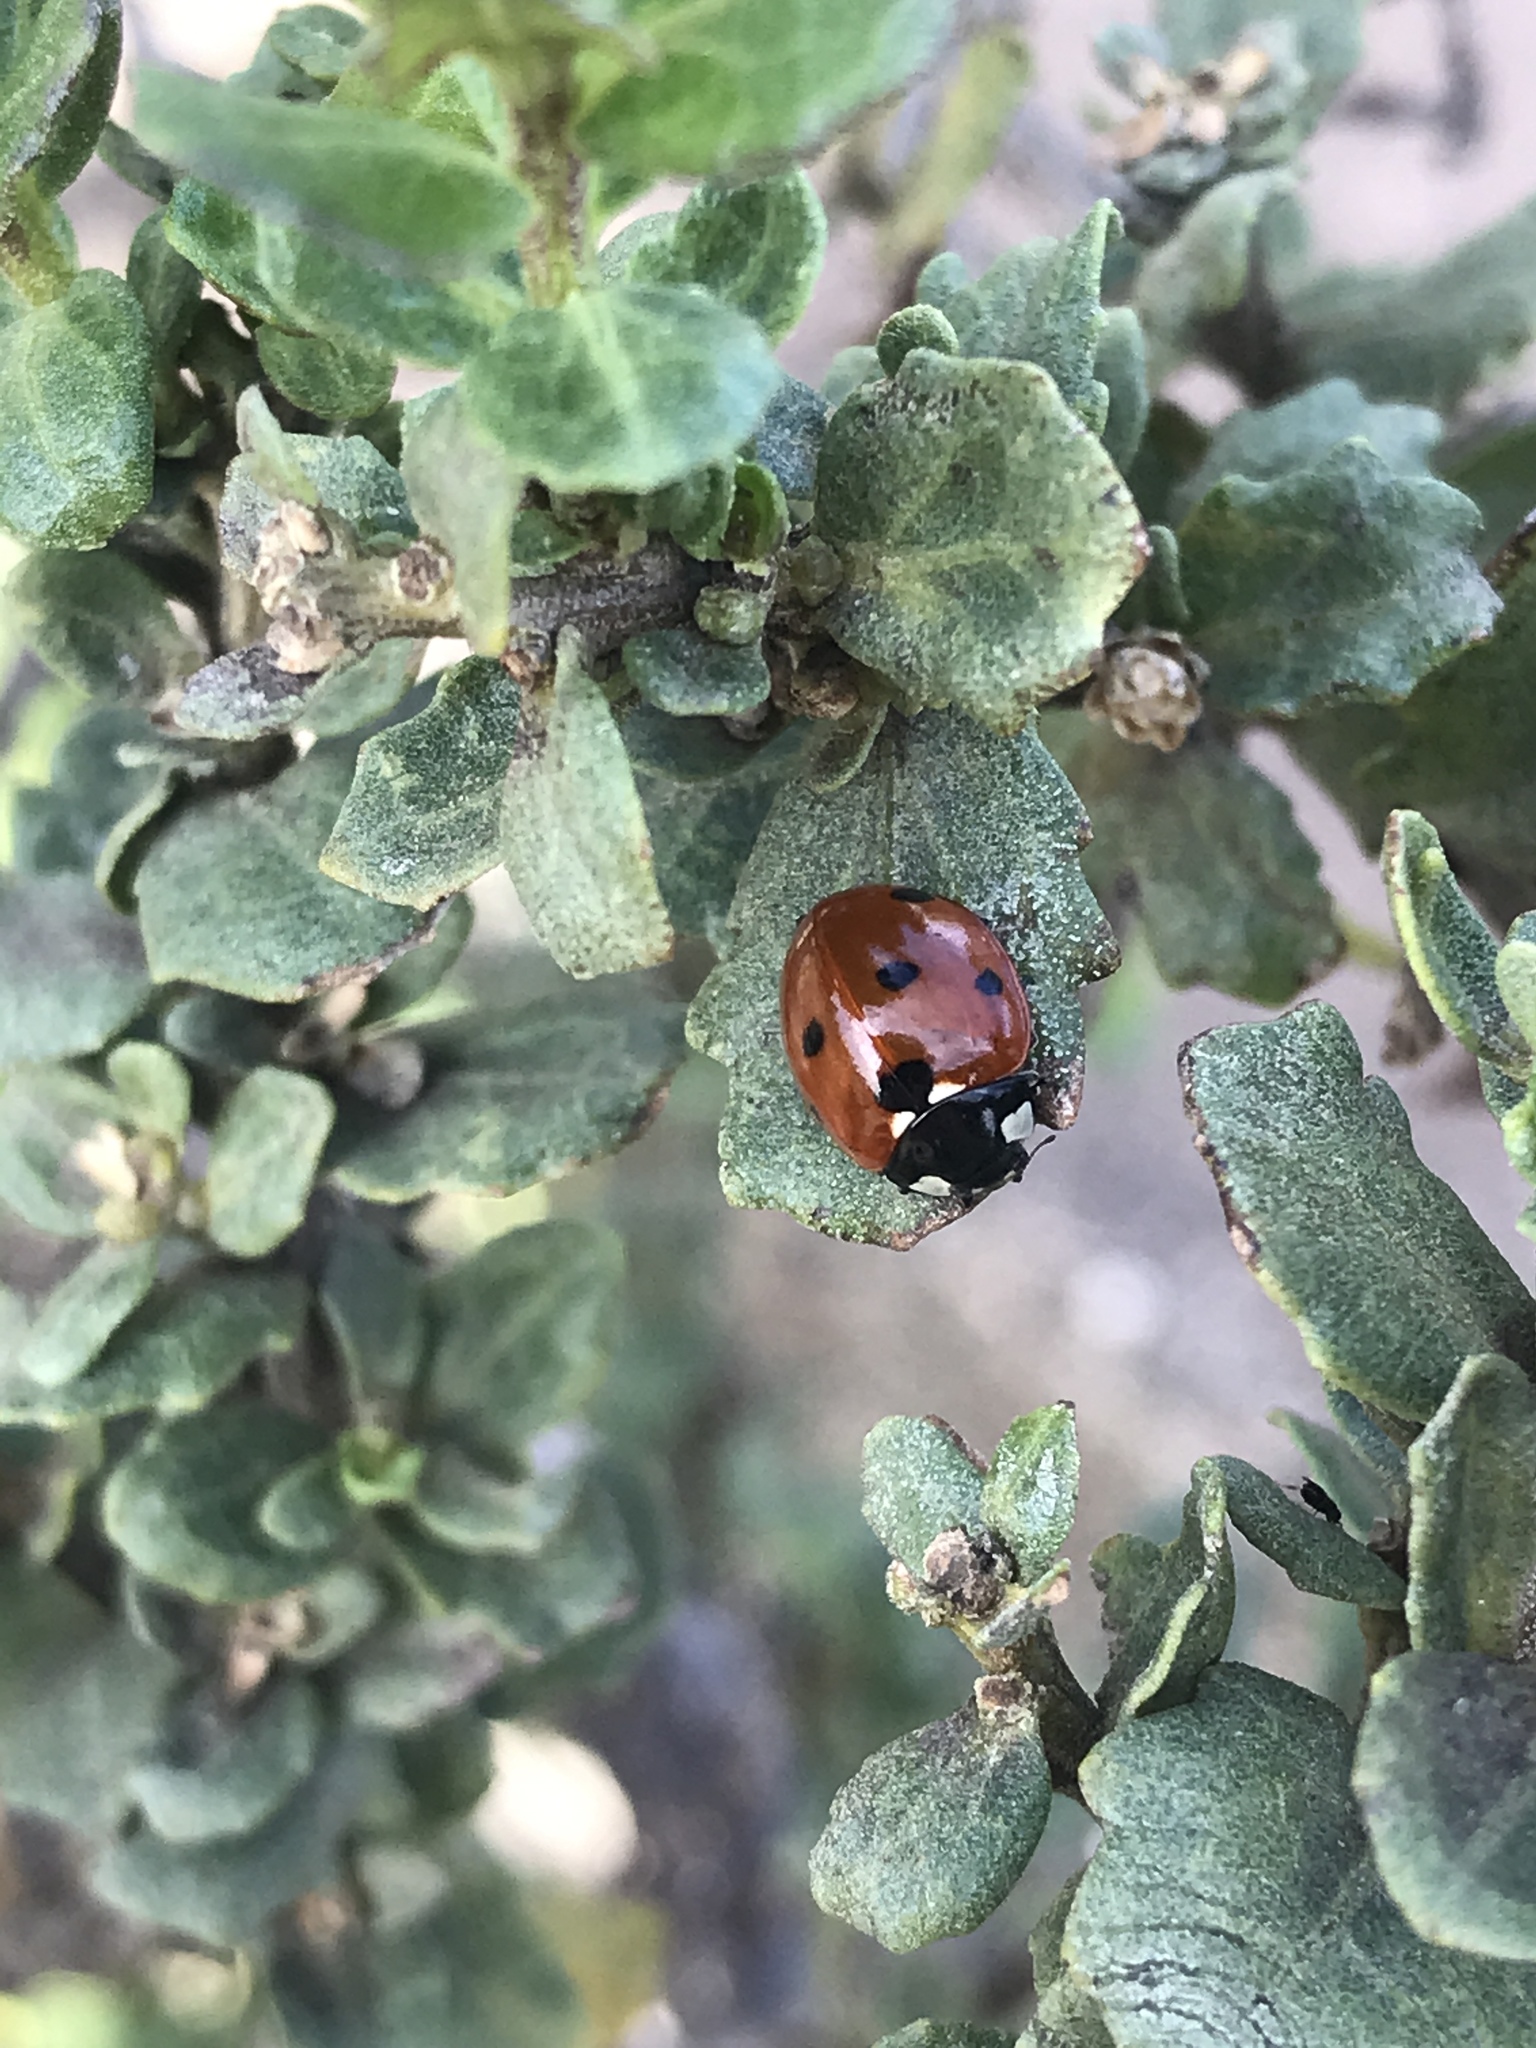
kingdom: Animalia
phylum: Arthropoda
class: Insecta
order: Coleoptera
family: Coccinellidae
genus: Coccinella
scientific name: Coccinella septempunctata
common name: Sevenspotted lady beetle
